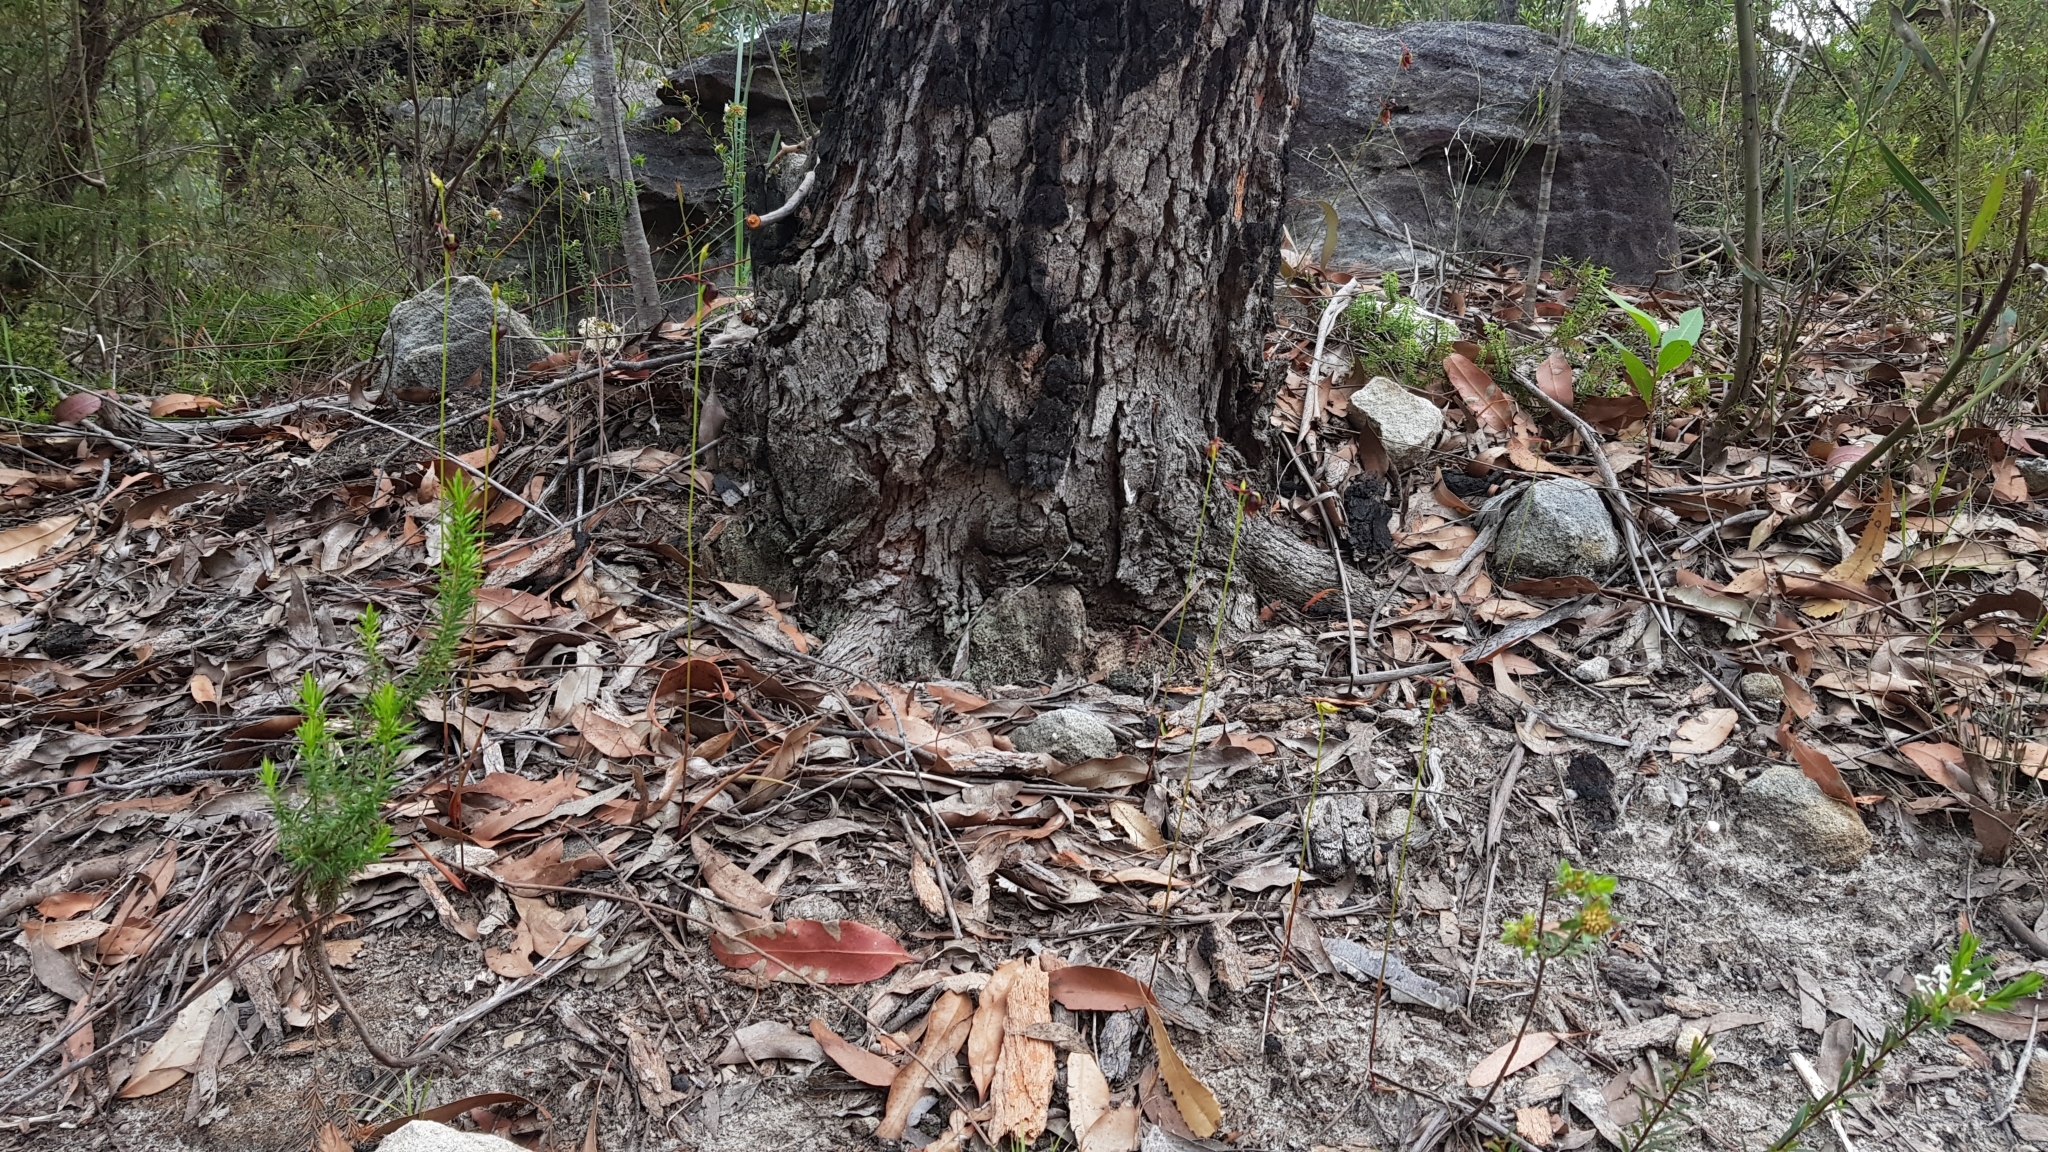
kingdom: Plantae
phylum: Tracheophyta
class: Liliopsida
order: Asparagales
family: Orchidaceae
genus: Caleana
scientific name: Caleana major
